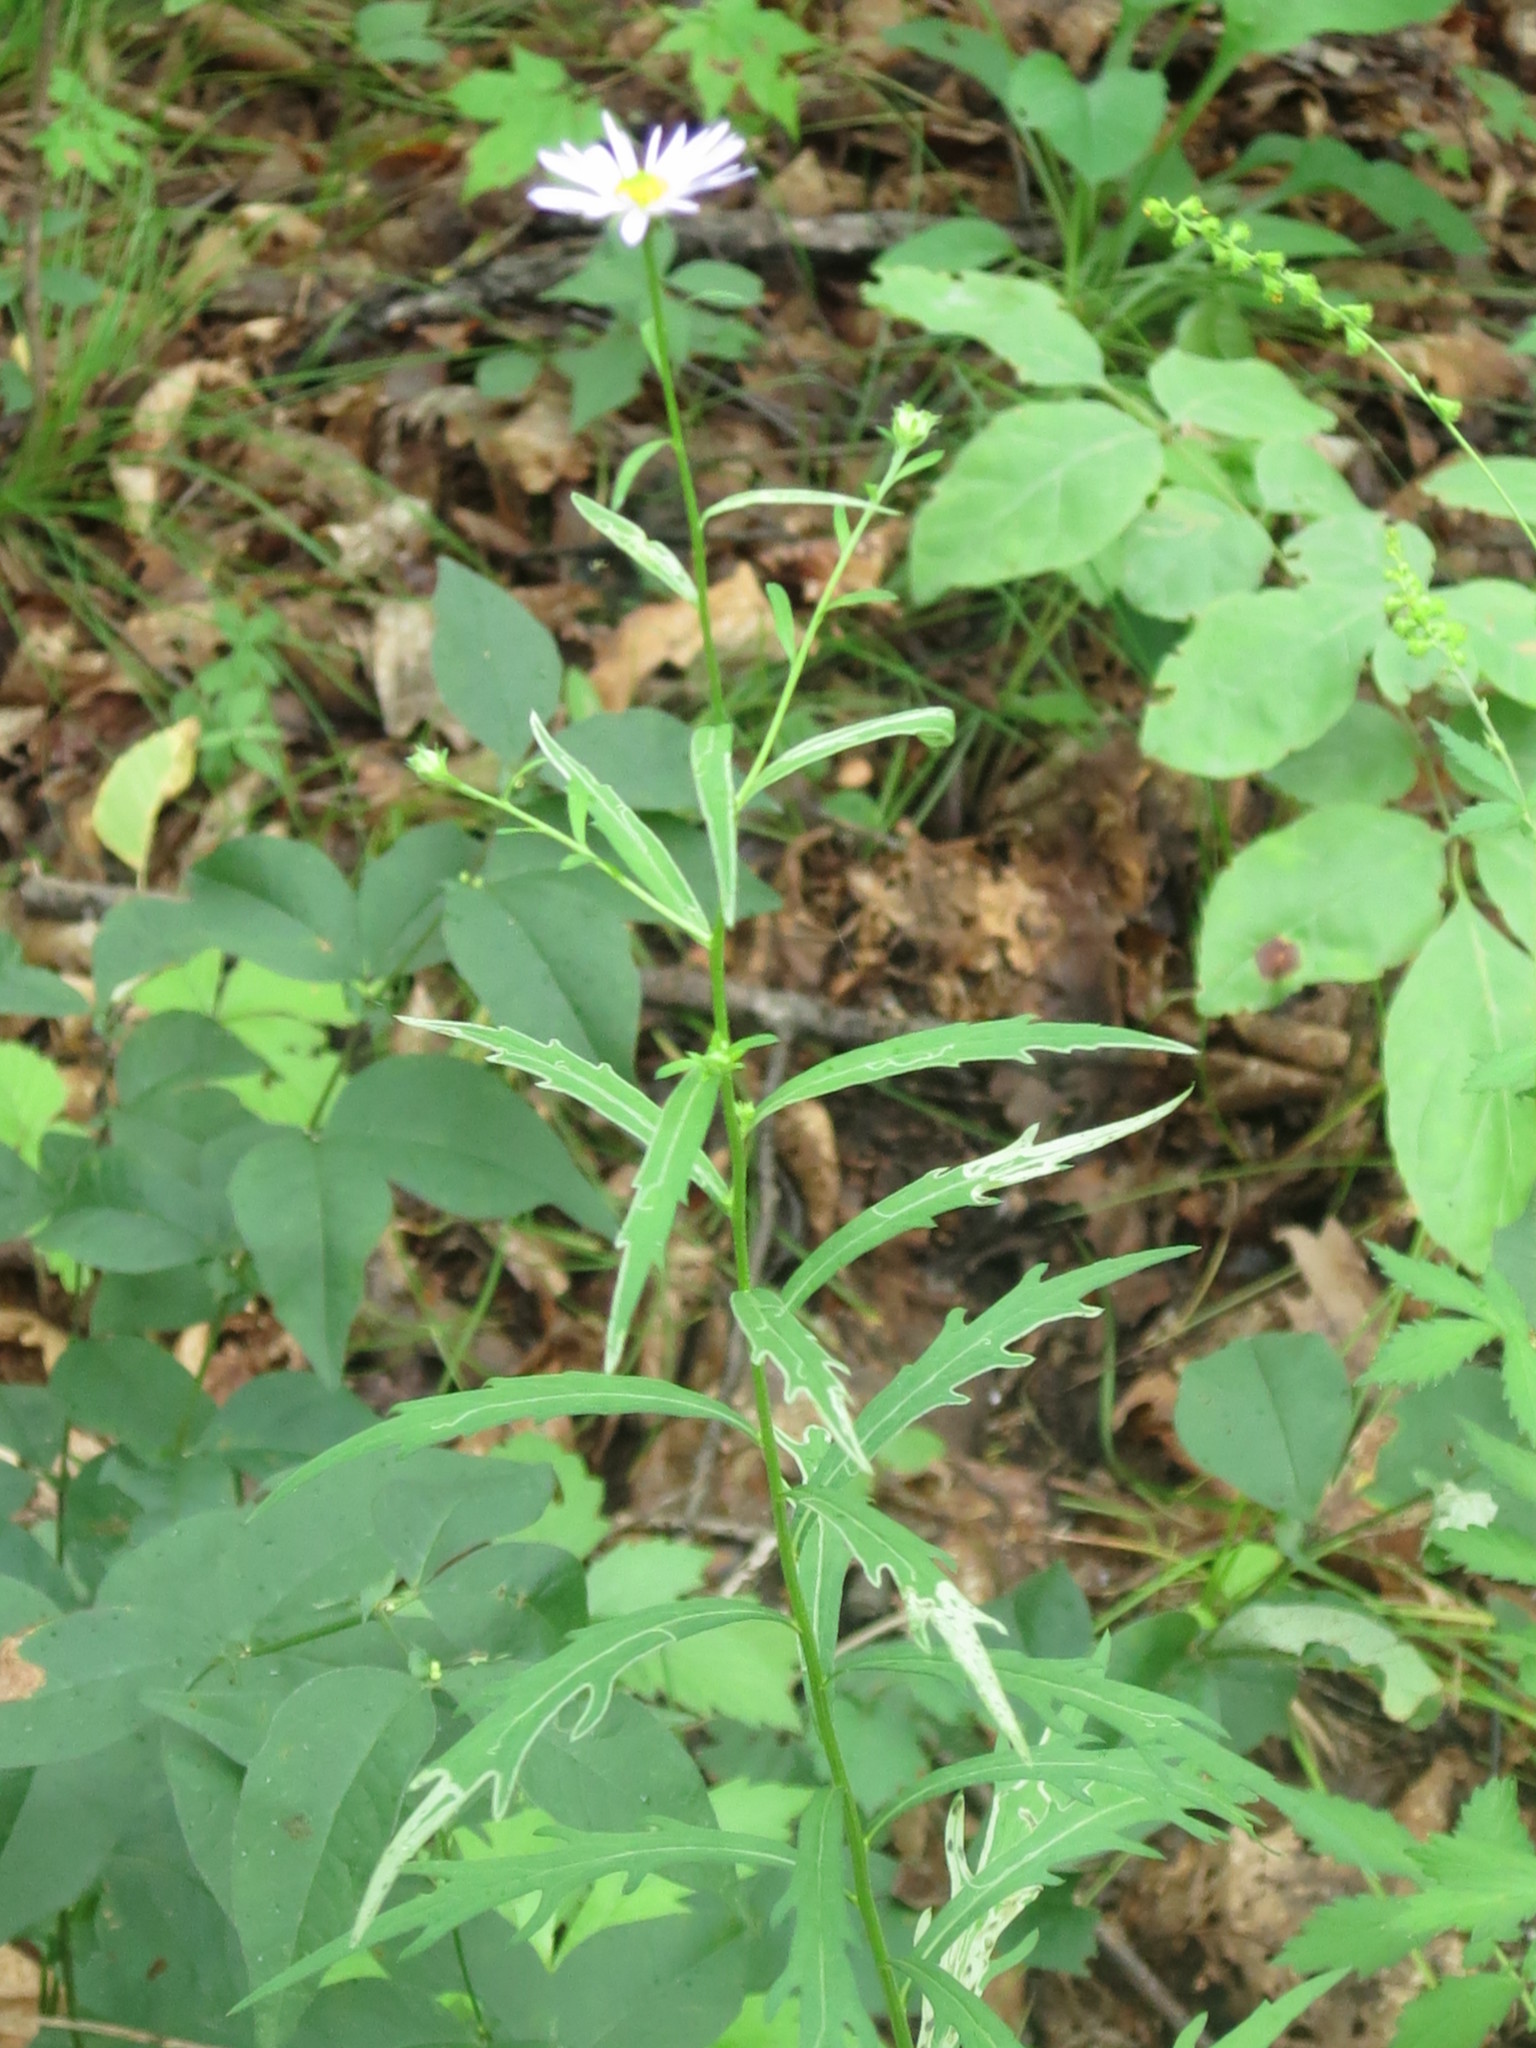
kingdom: Plantae
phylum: Tracheophyta
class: Magnoliopsida
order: Asterales
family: Asteraceae
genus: Kalimeris
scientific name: Kalimeris incisa
